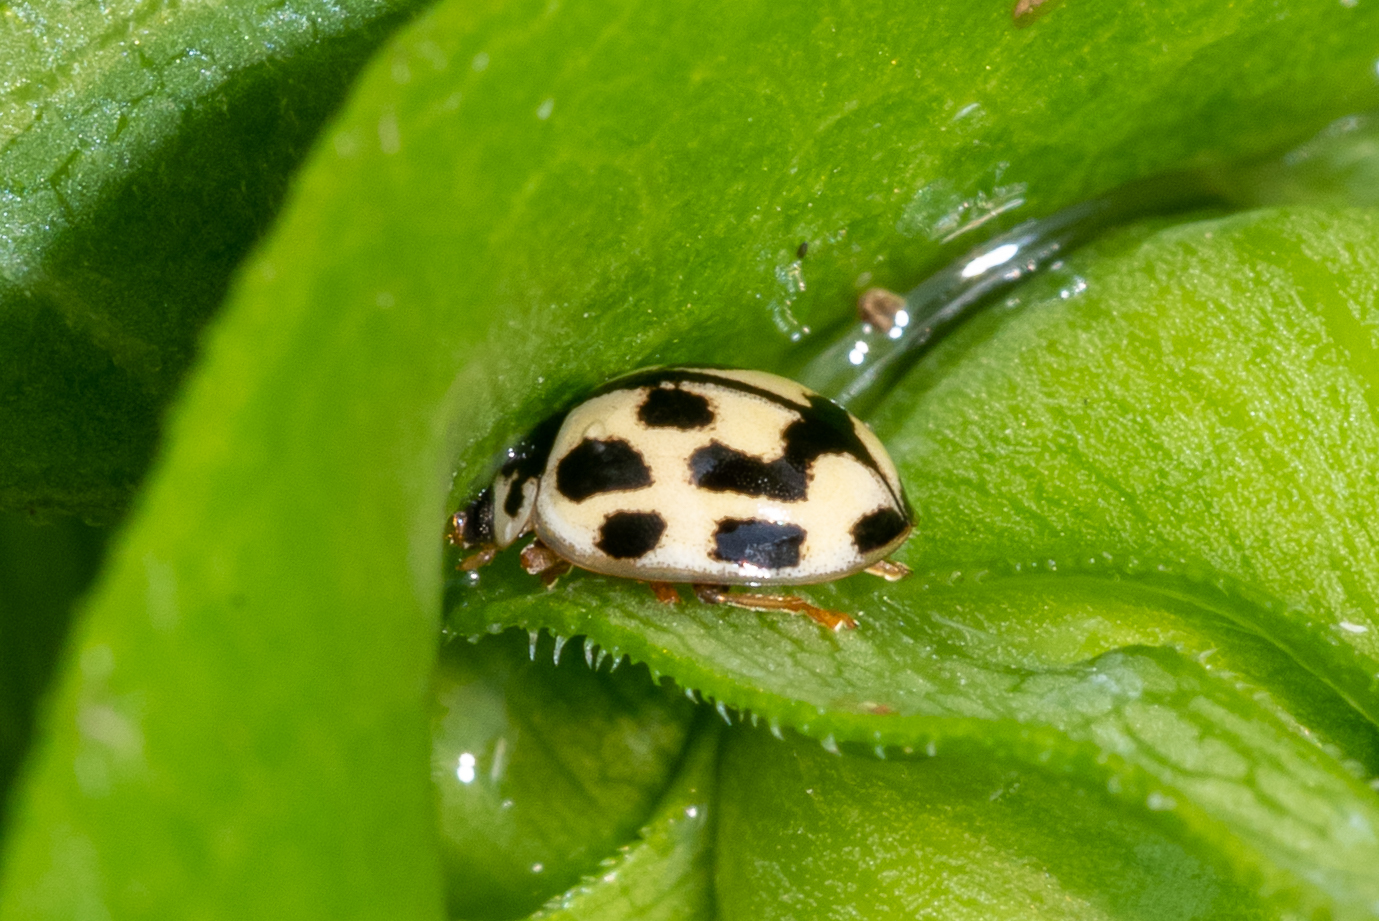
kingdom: Animalia
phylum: Arthropoda
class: Insecta
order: Coleoptera
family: Coccinellidae
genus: Propylaea
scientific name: Propylaea quatuordecimpunctata
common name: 14-spotted ladybird beetle
